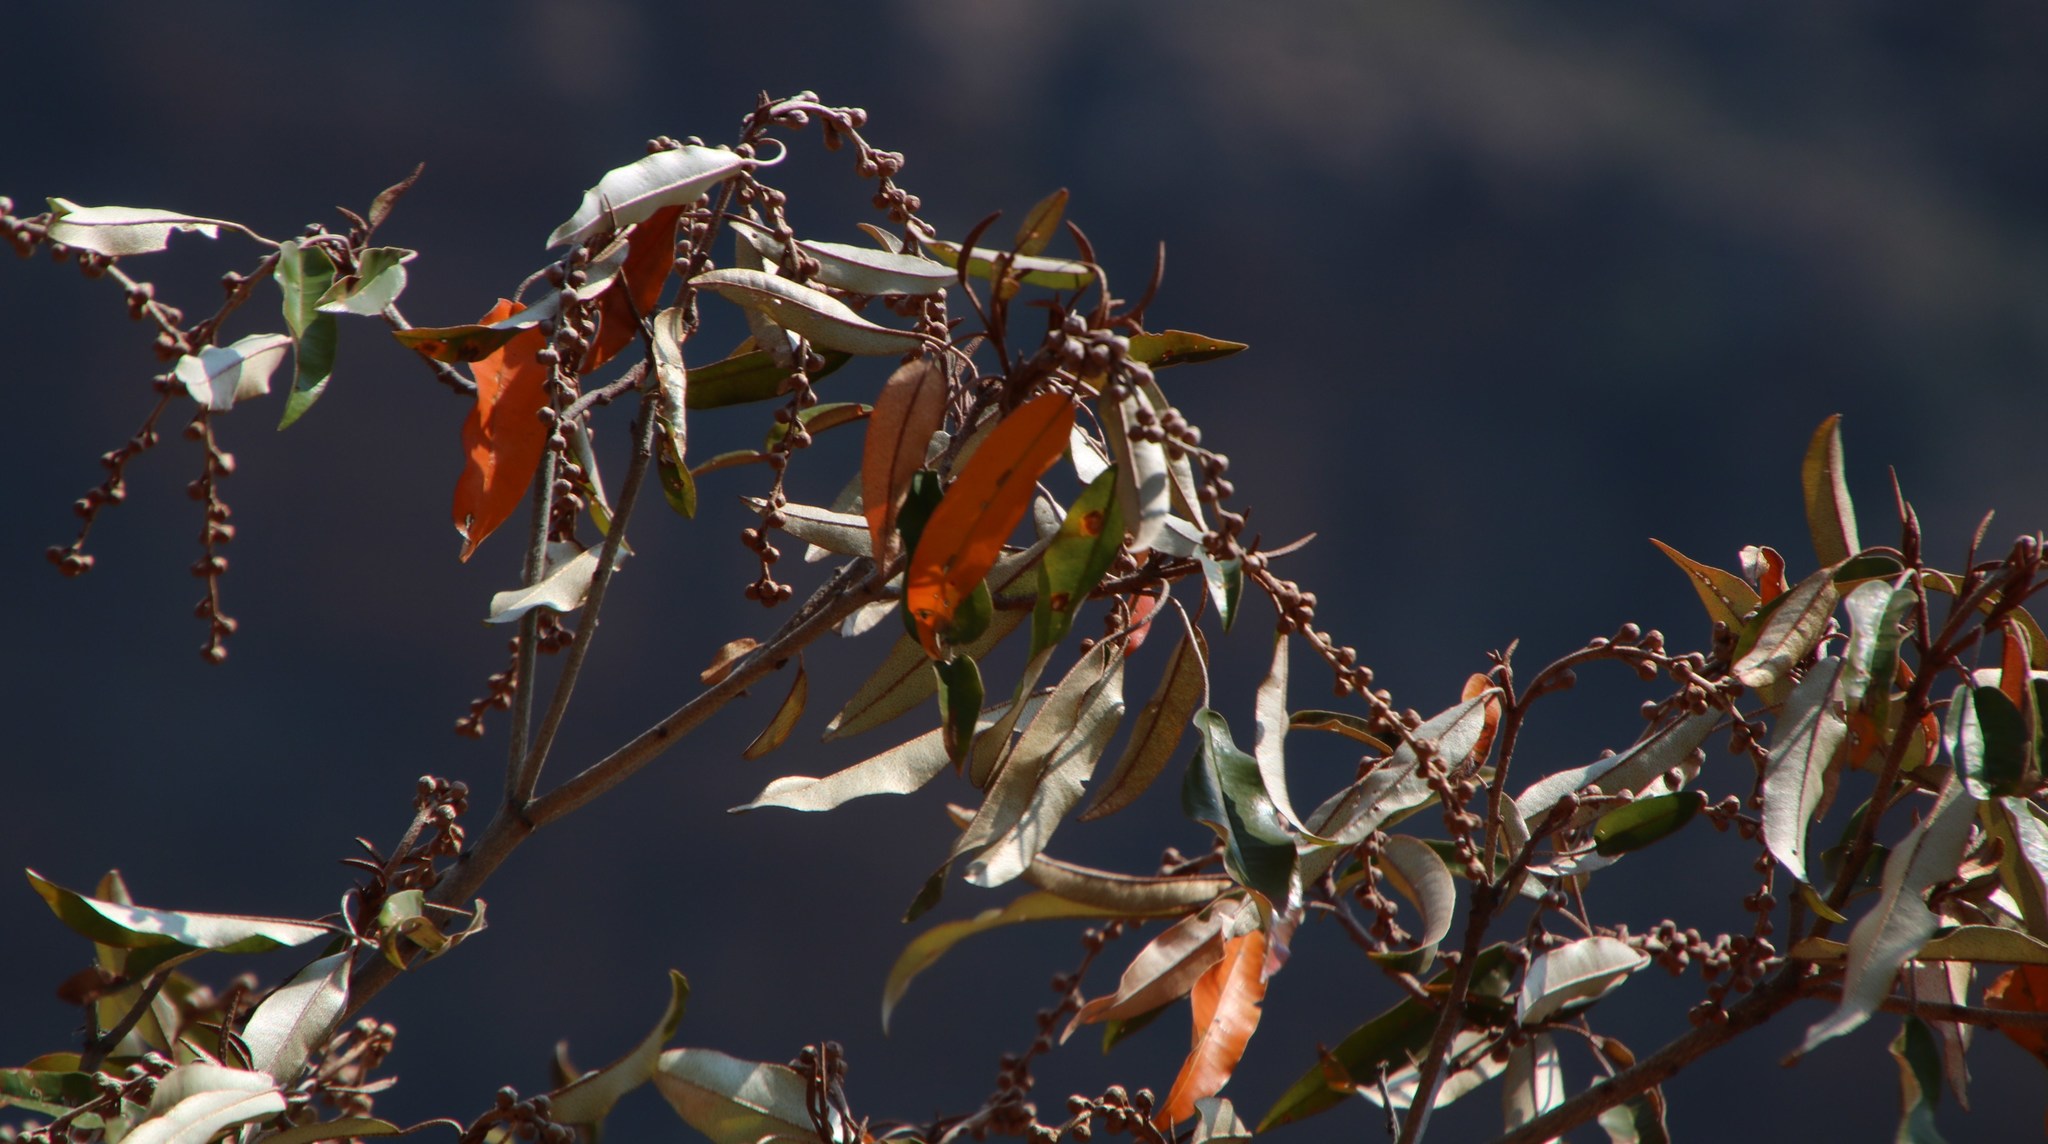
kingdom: Plantae
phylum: Tracheophyta
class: Magnoliopsida
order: Malpighiales
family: Euphorbiaceae
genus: Croton
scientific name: Croton gratissimus
